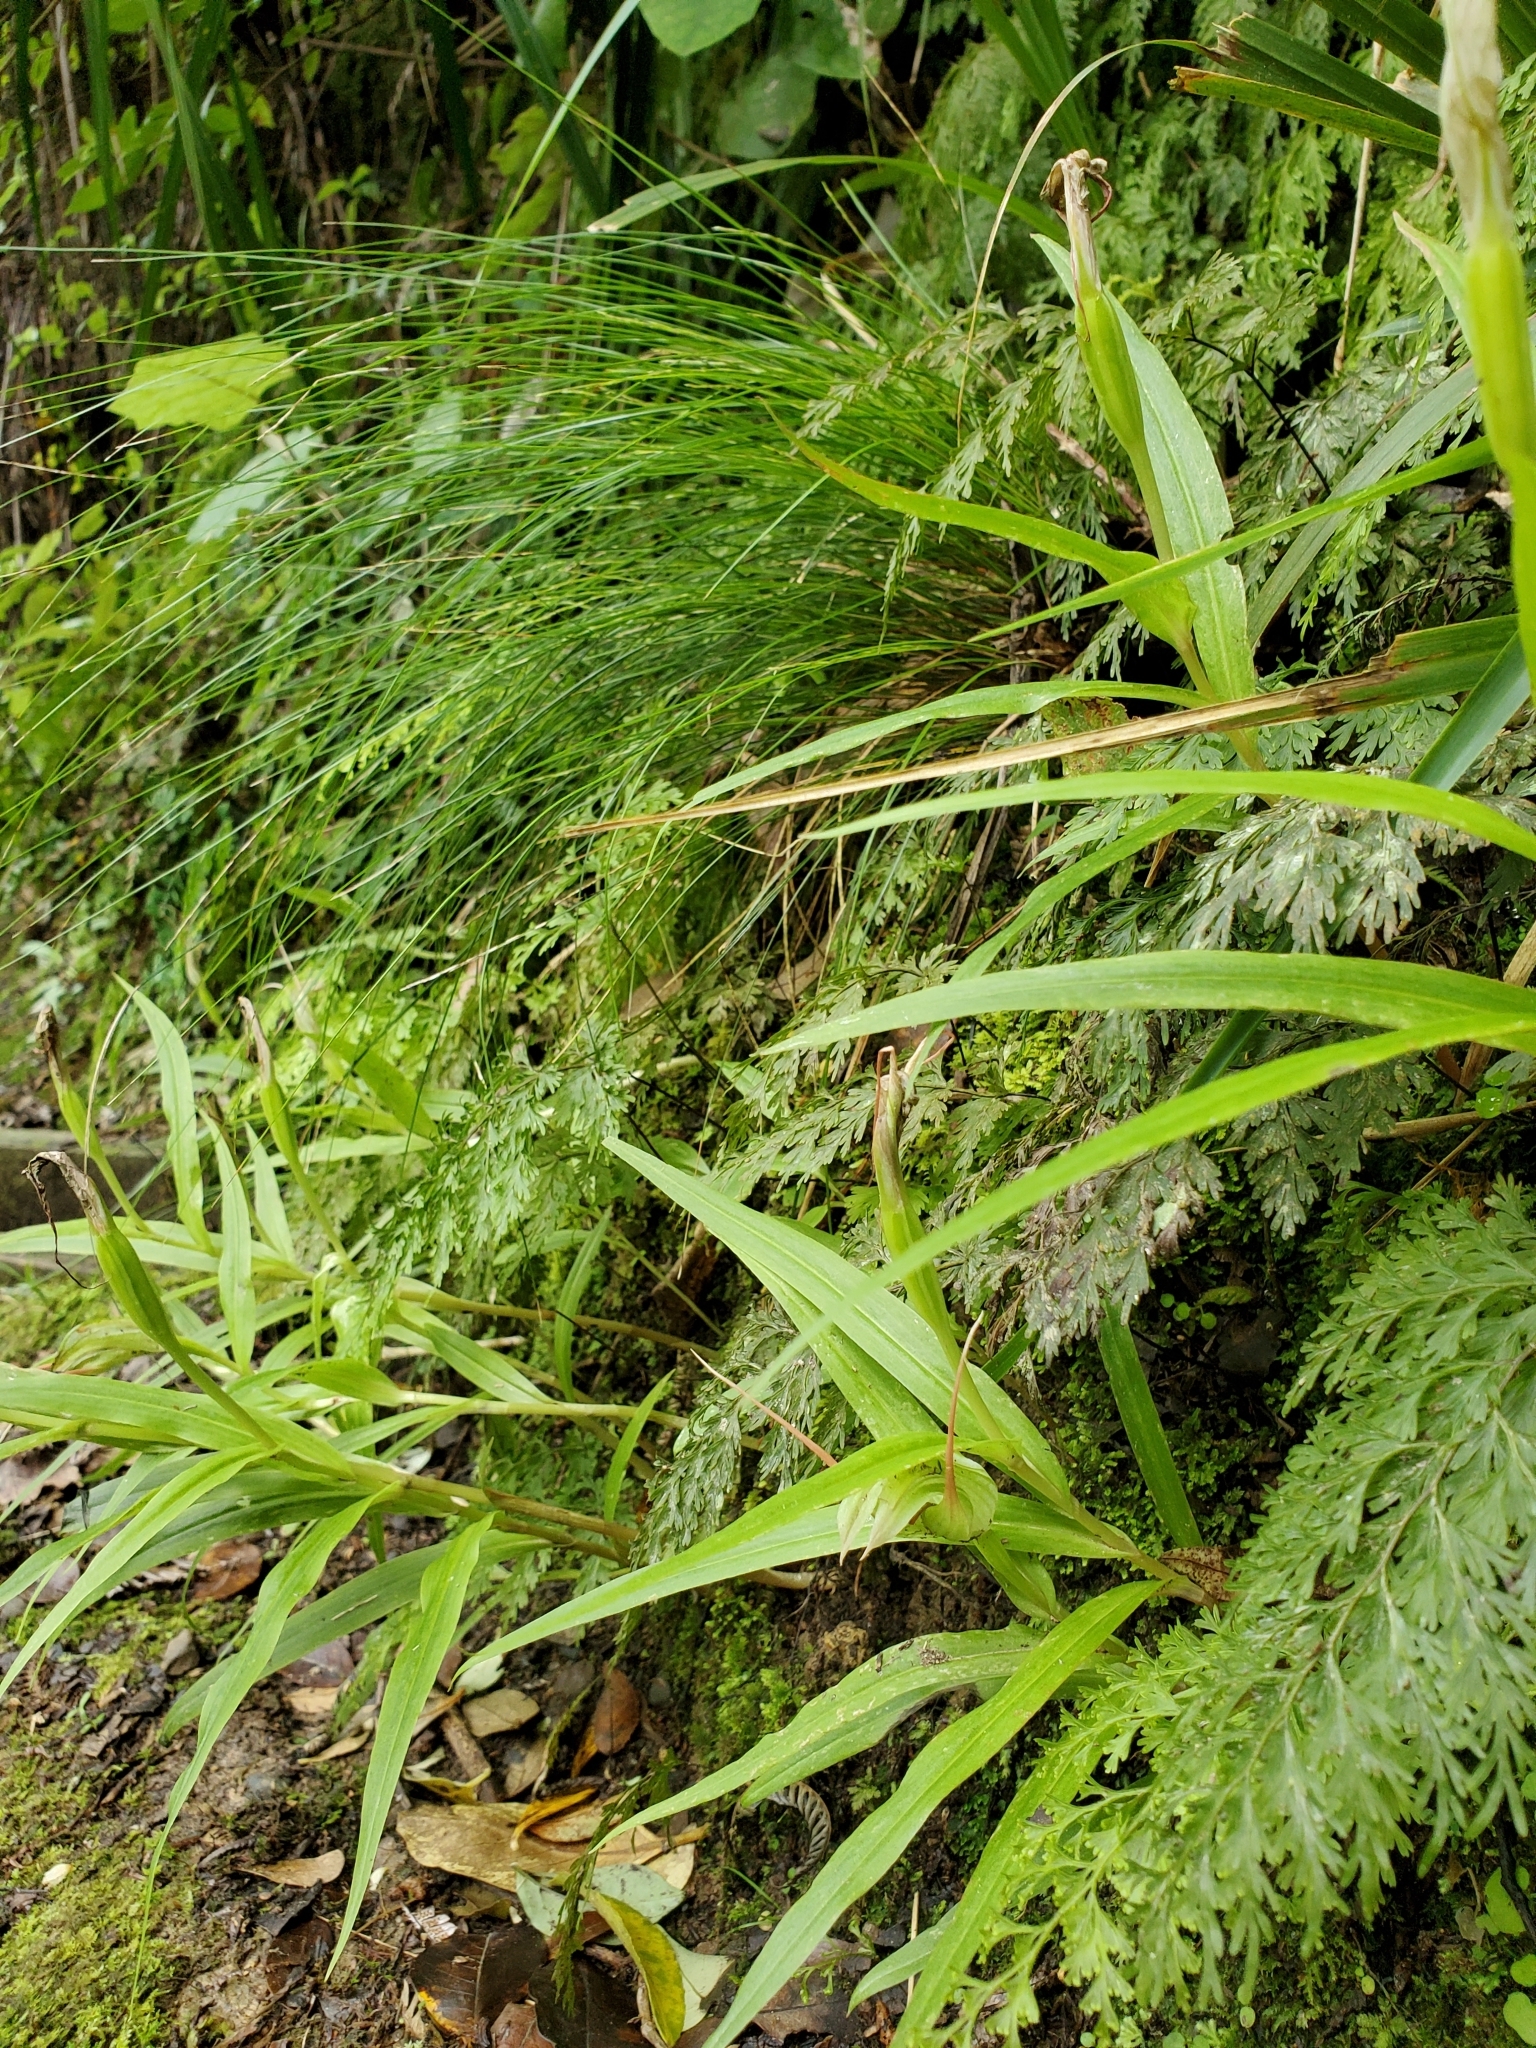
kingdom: Plantae
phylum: Tracheophyta
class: Liliopsida
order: Asparagales
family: Orchidaceae
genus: Pterostylis
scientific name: Pterostylis banksii
